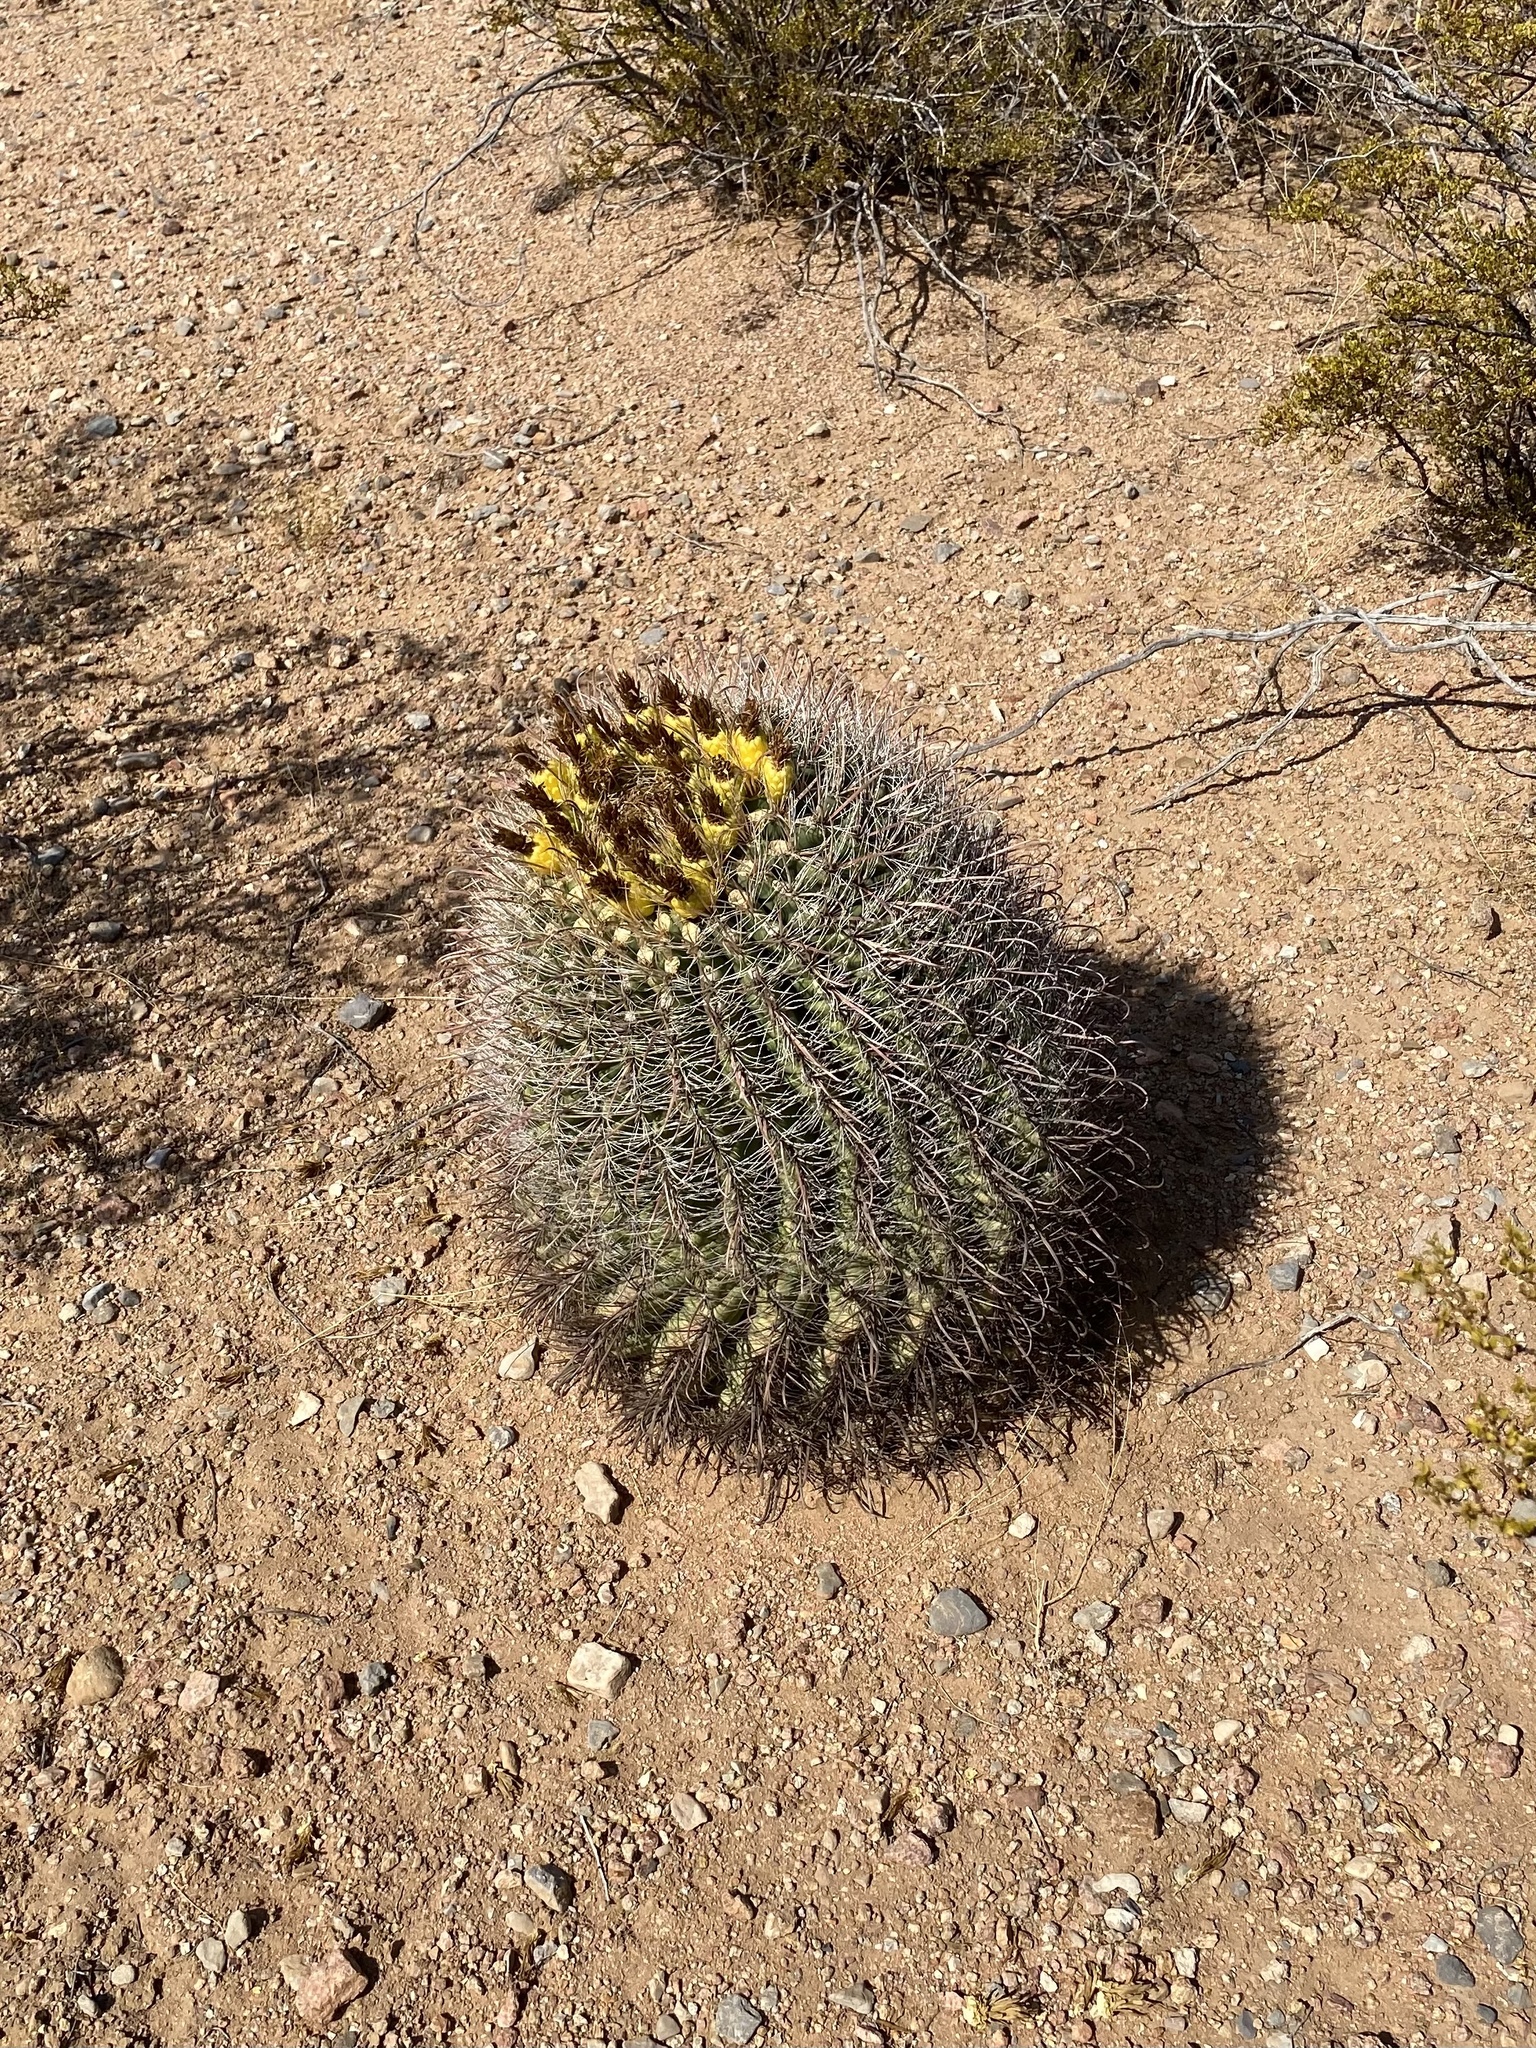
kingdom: Plantae
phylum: Tracheophyta
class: Magnoliopsida
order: Caryophyllales
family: Cactaceae
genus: Ferocactus
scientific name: Ferocactus wislizeni
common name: Candy barrel cactus
